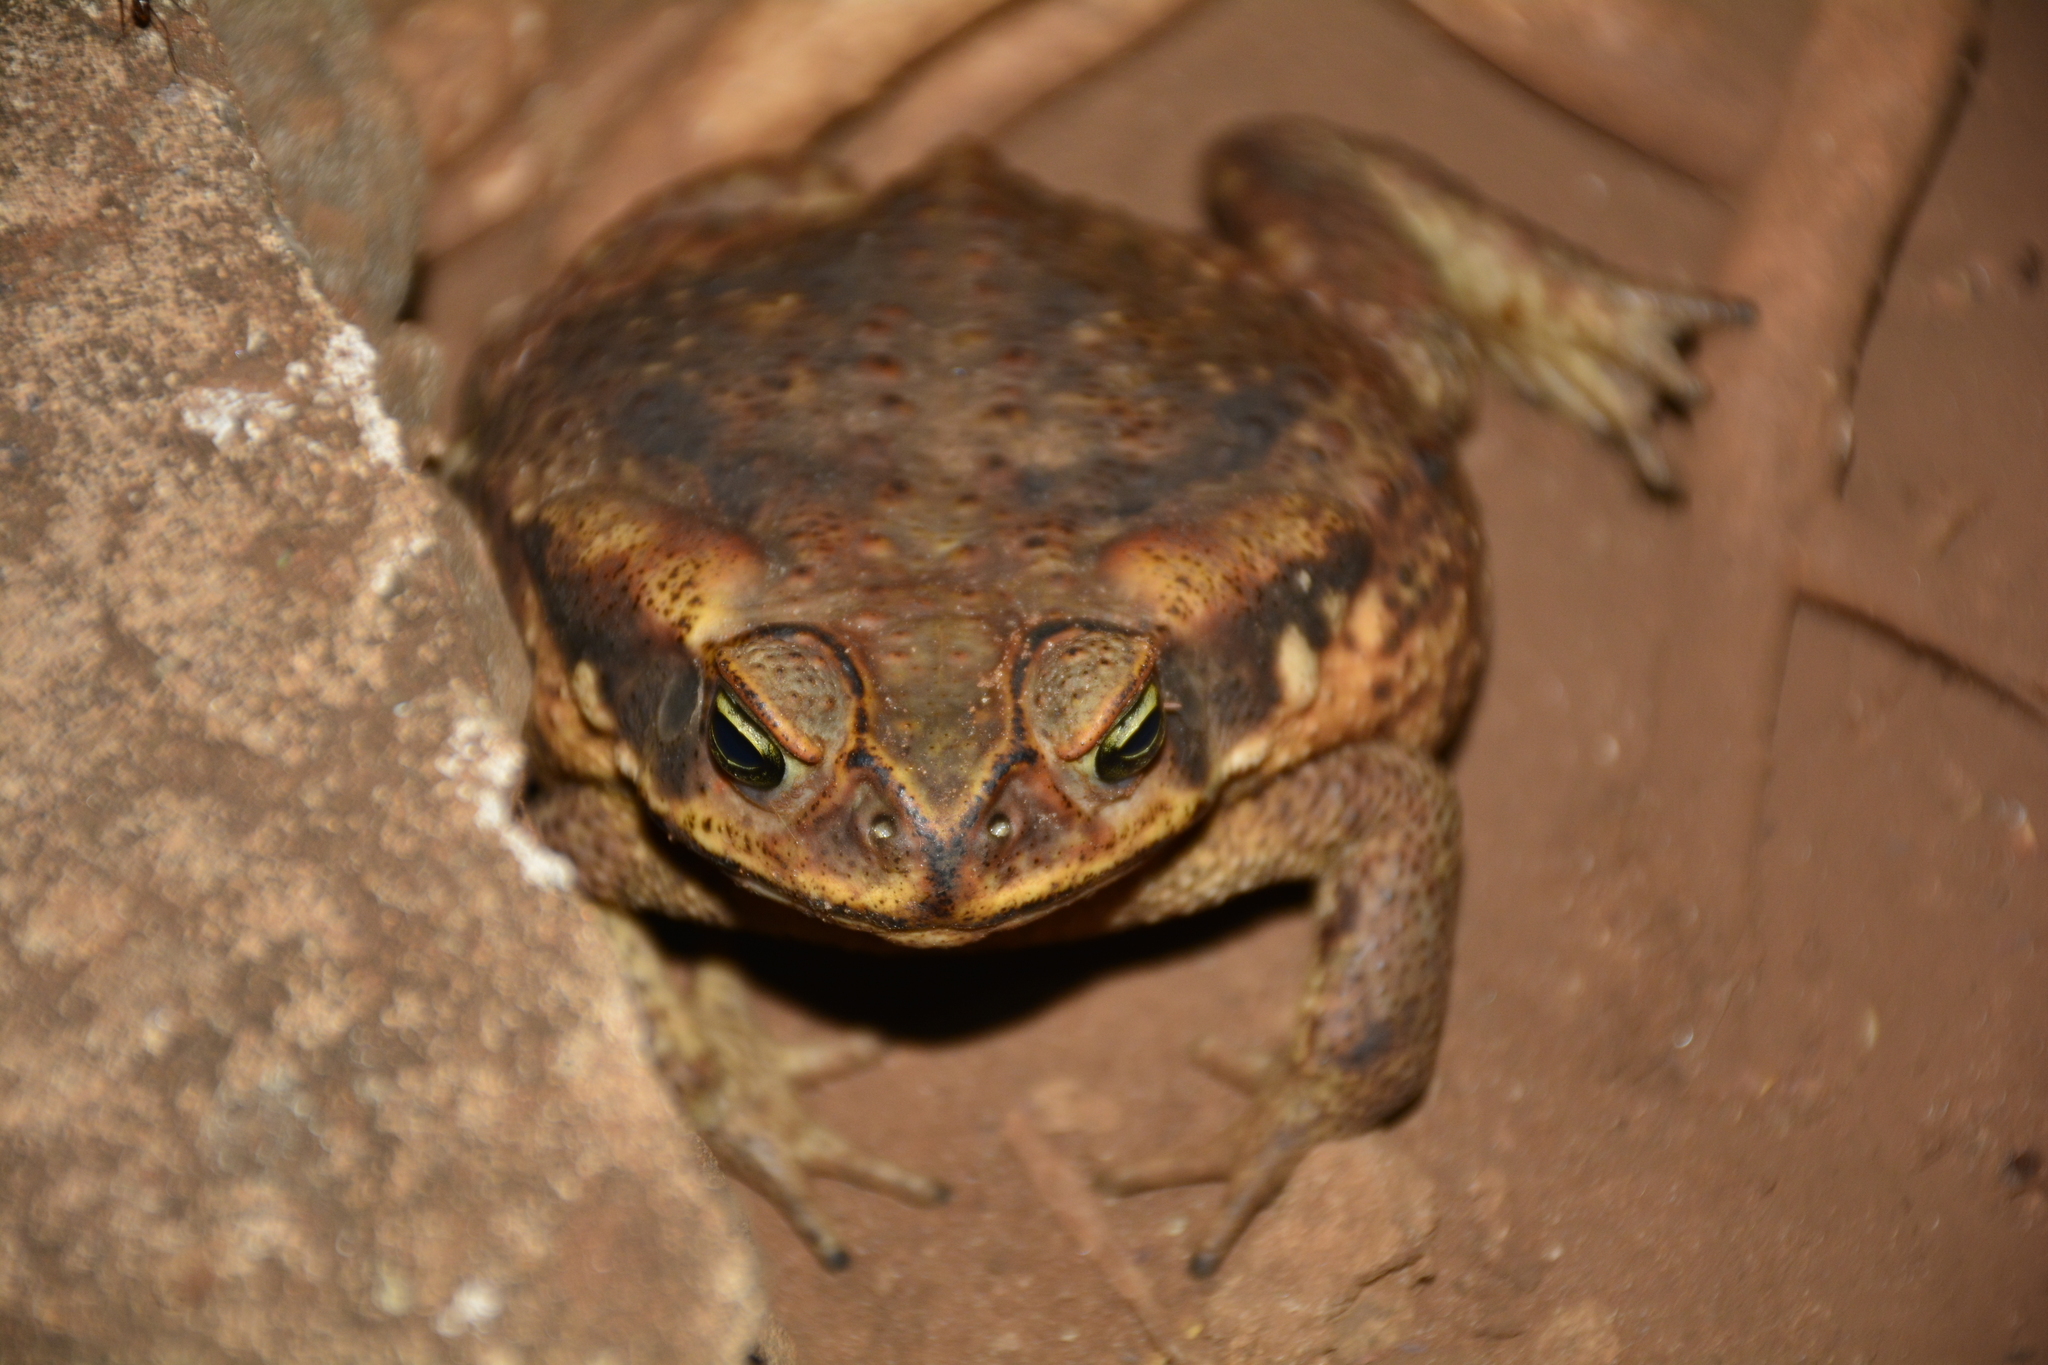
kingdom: Animalia
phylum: Chordata
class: Amphibia
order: Anura
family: Bufonidae
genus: Rhinella
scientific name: Rhinella diptycha
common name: Cope's toad
